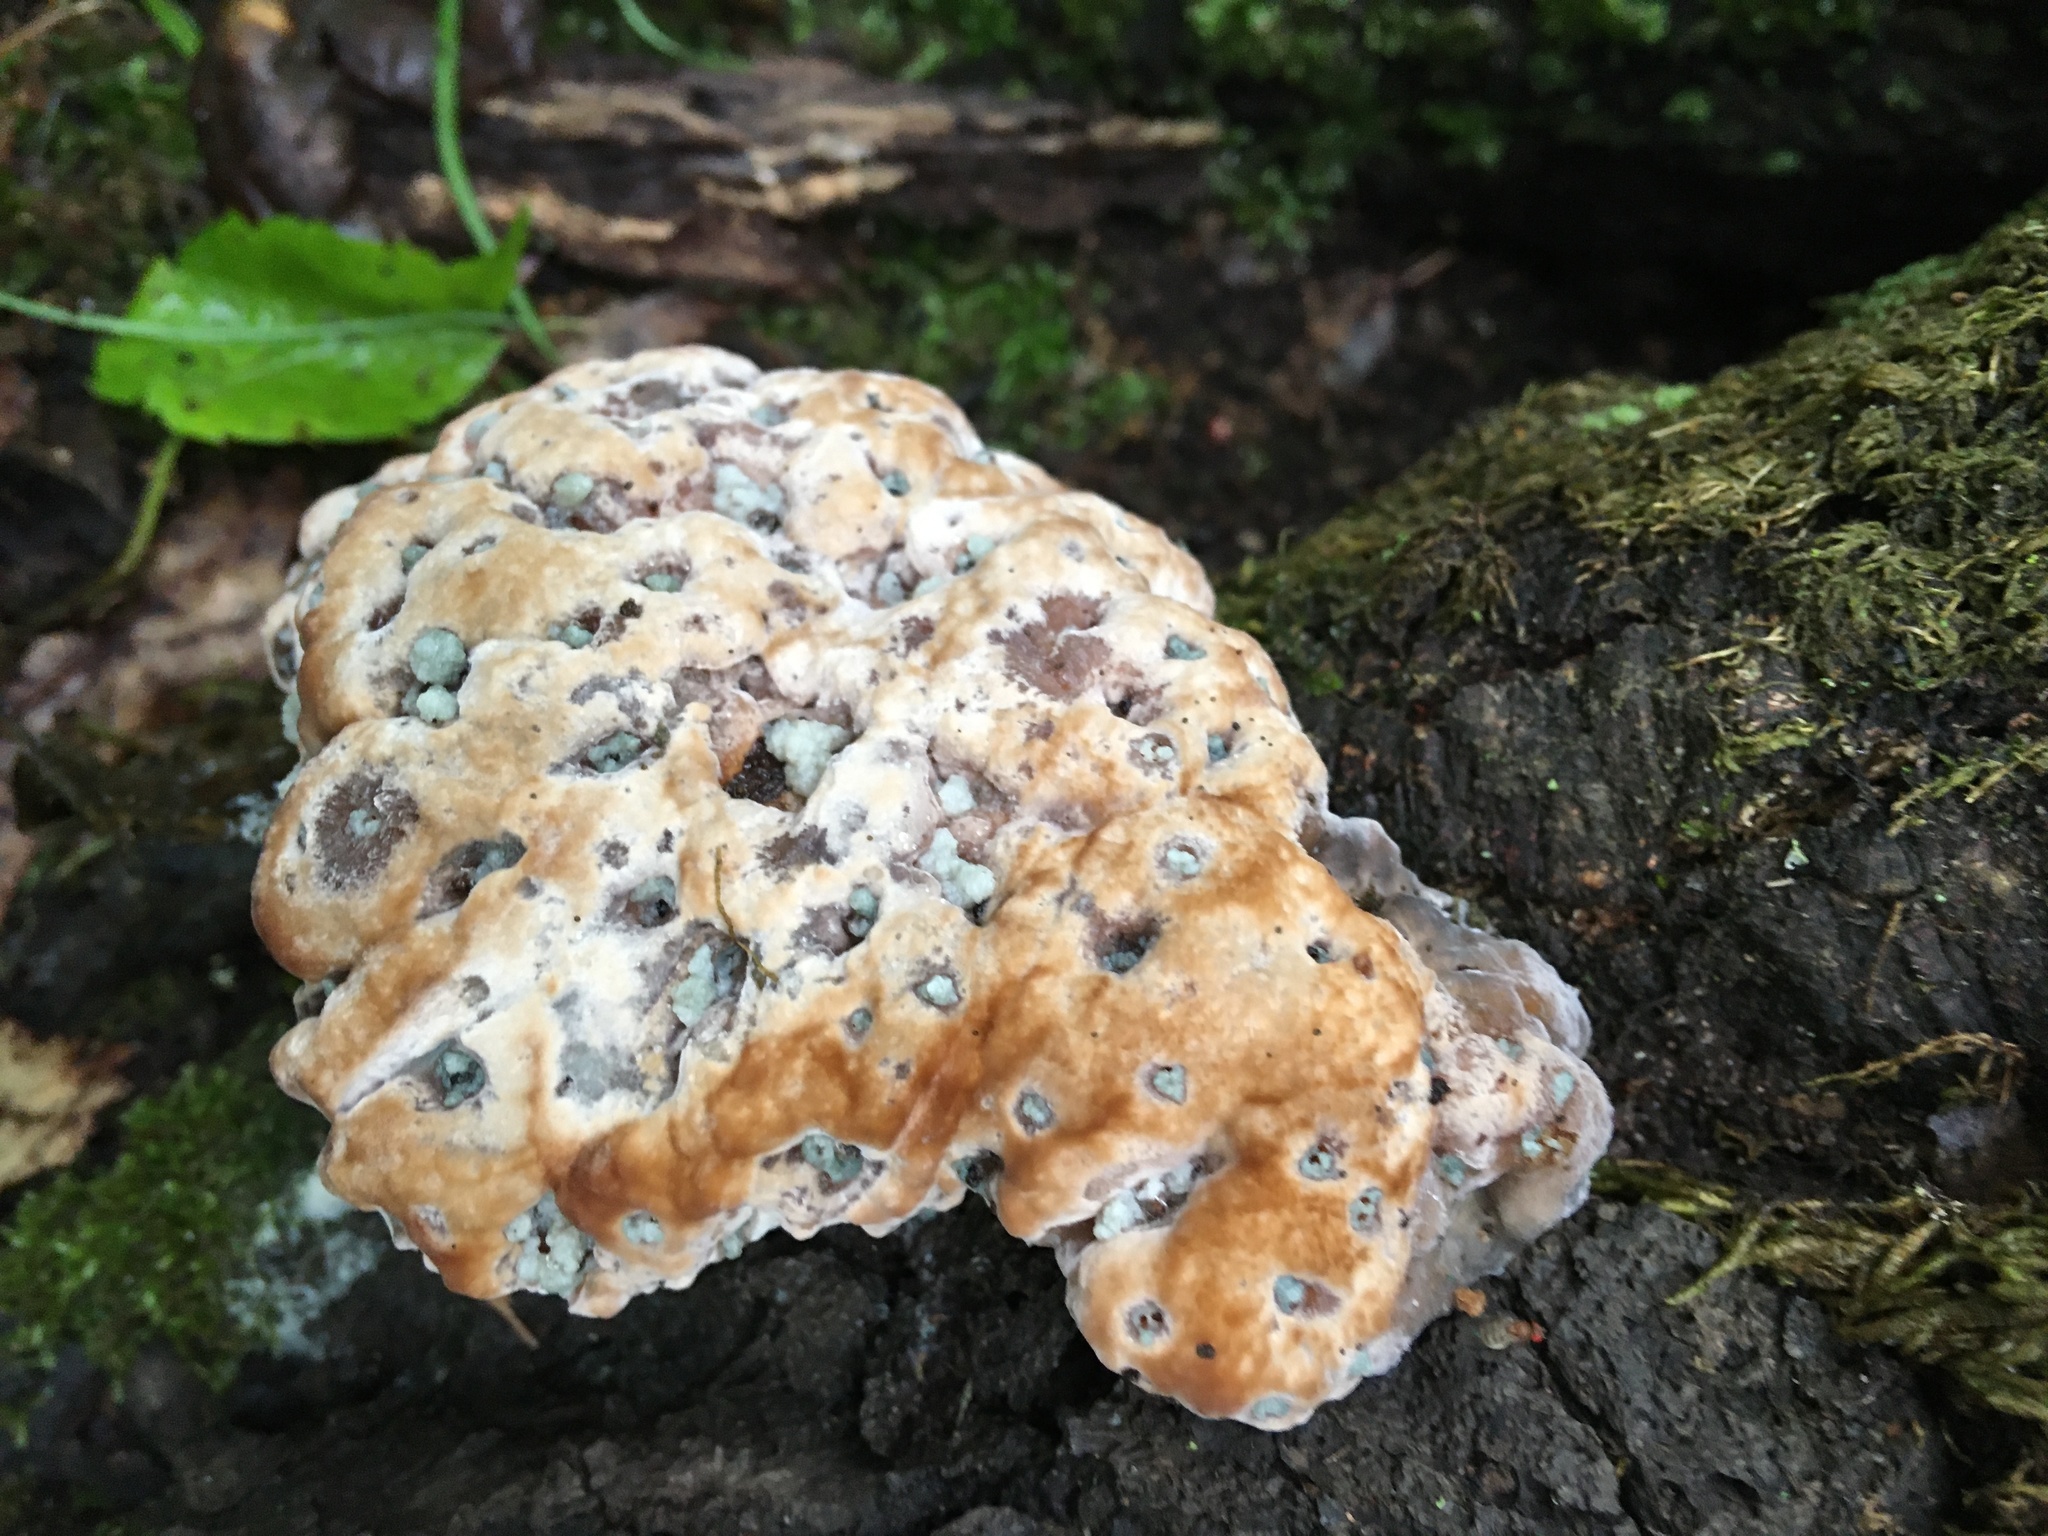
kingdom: Fungi
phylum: Basidiomycota
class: Agaricomycetes
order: Hymenochaetales
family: Hymenochaetaceae
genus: Pseudoinonotus
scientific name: Pseudoinonotus dryadeus
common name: Oak bracket
